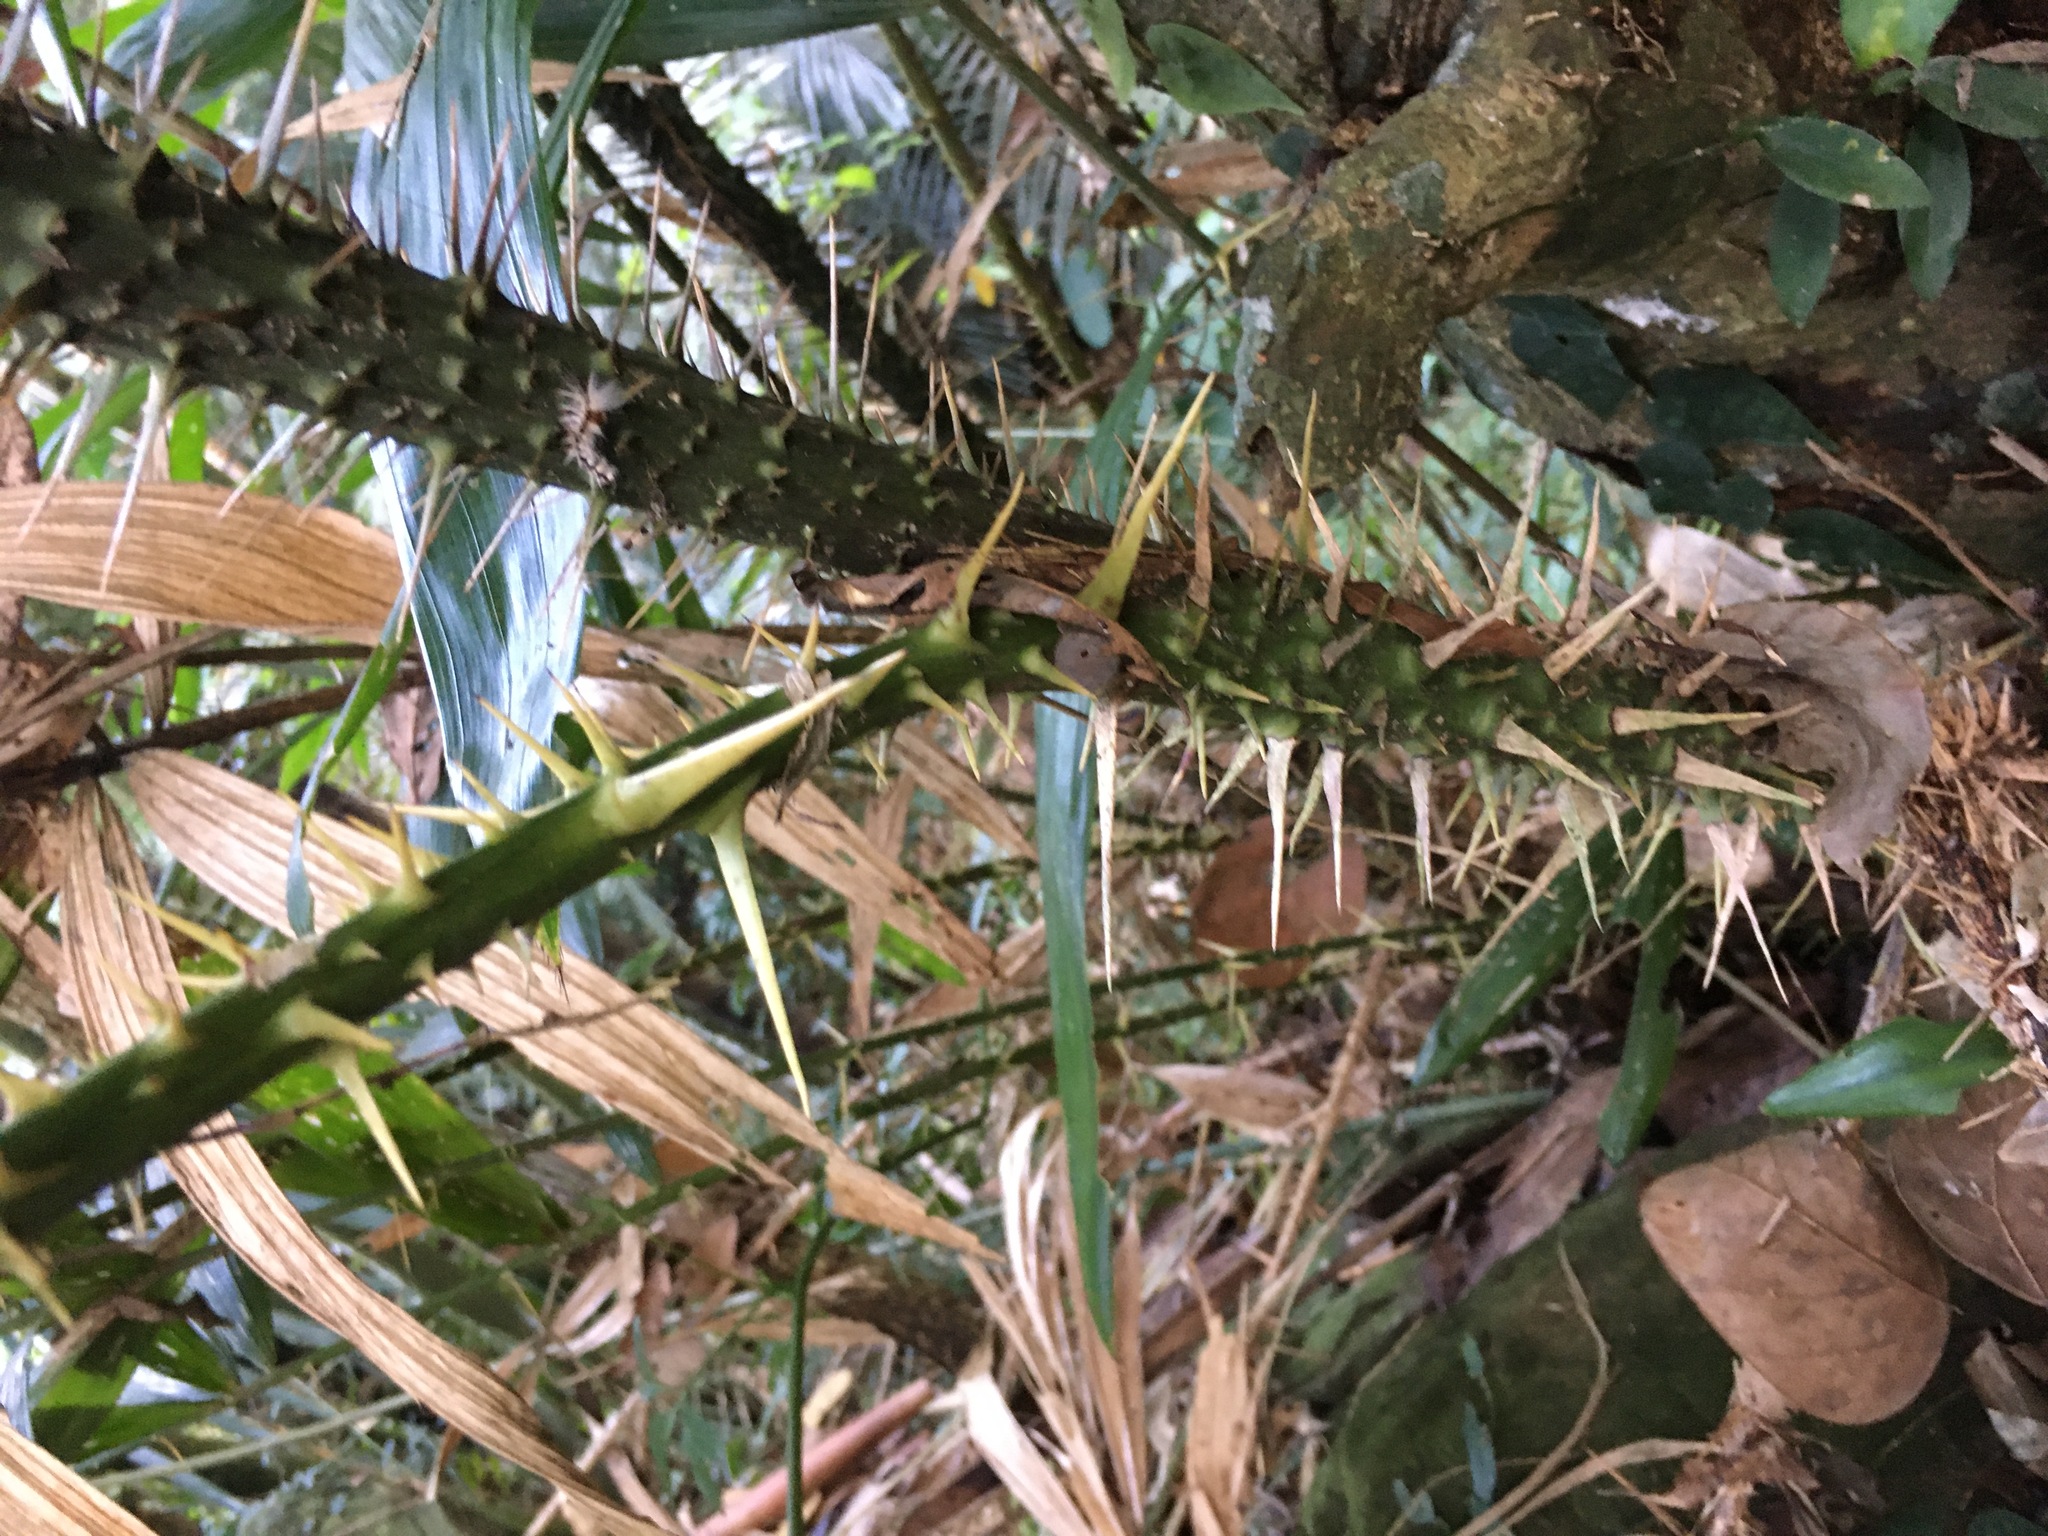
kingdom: Plantae
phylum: Tracheophyta
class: Liliopsida
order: Arecales
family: Arecaceae
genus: Calamus
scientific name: Calamus formosanus
